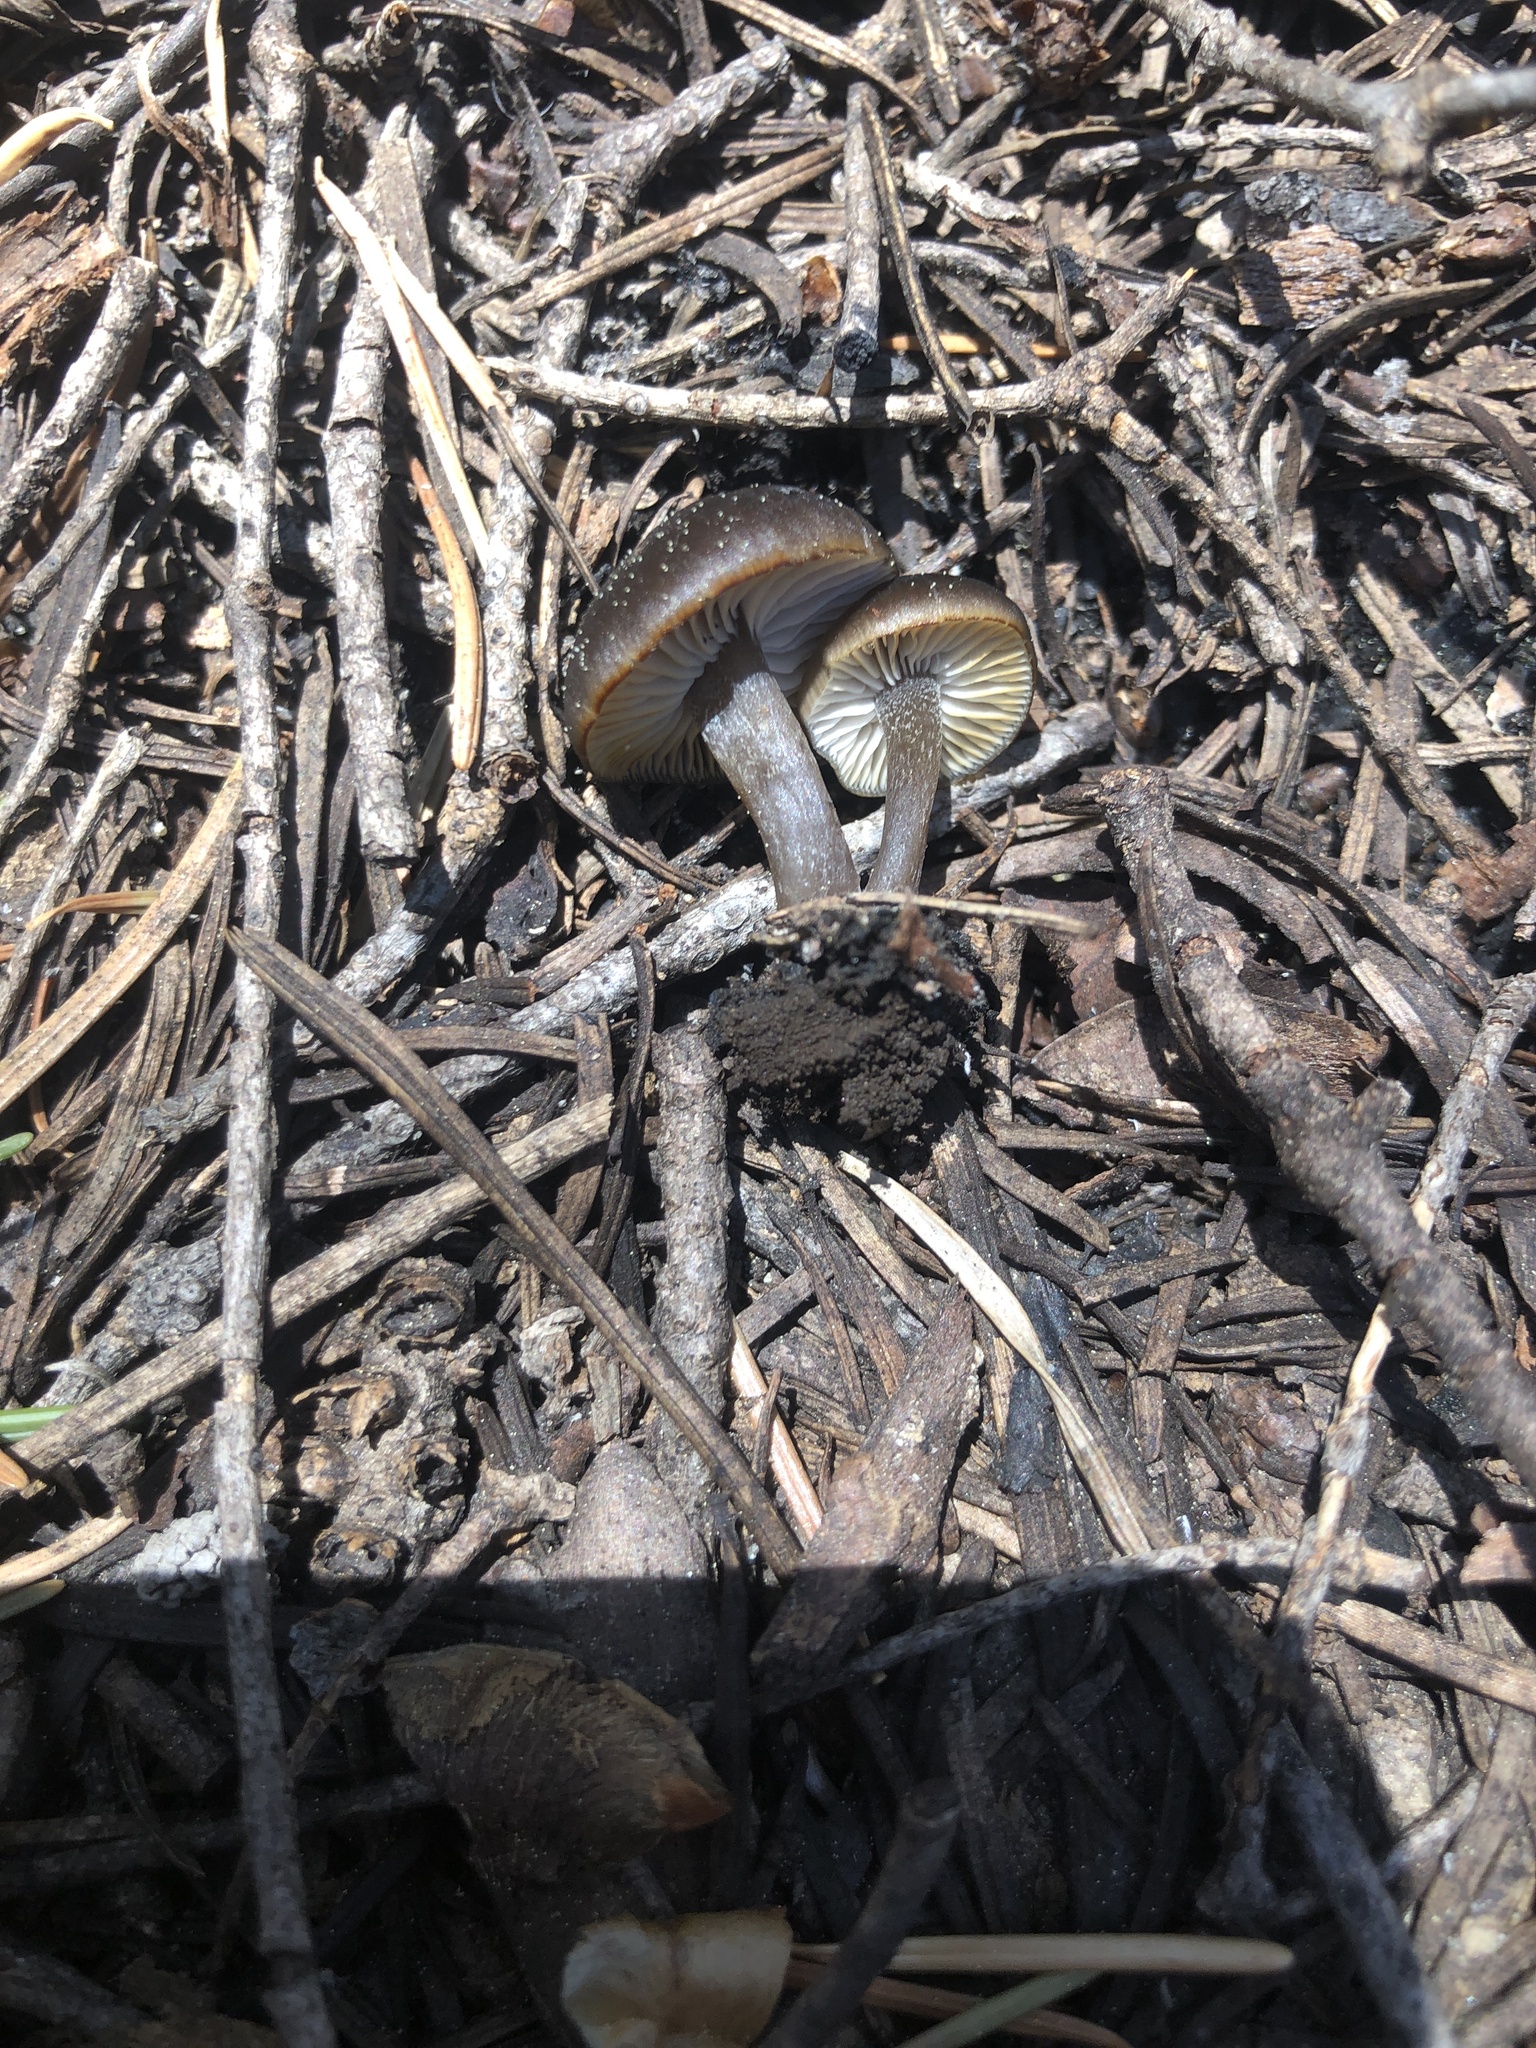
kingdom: Fungi
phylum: Basidiomycota
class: Agaricomycetes
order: Agaricales
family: Tricholomataceae
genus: Myxomphalia
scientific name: Myxomphalia maura
